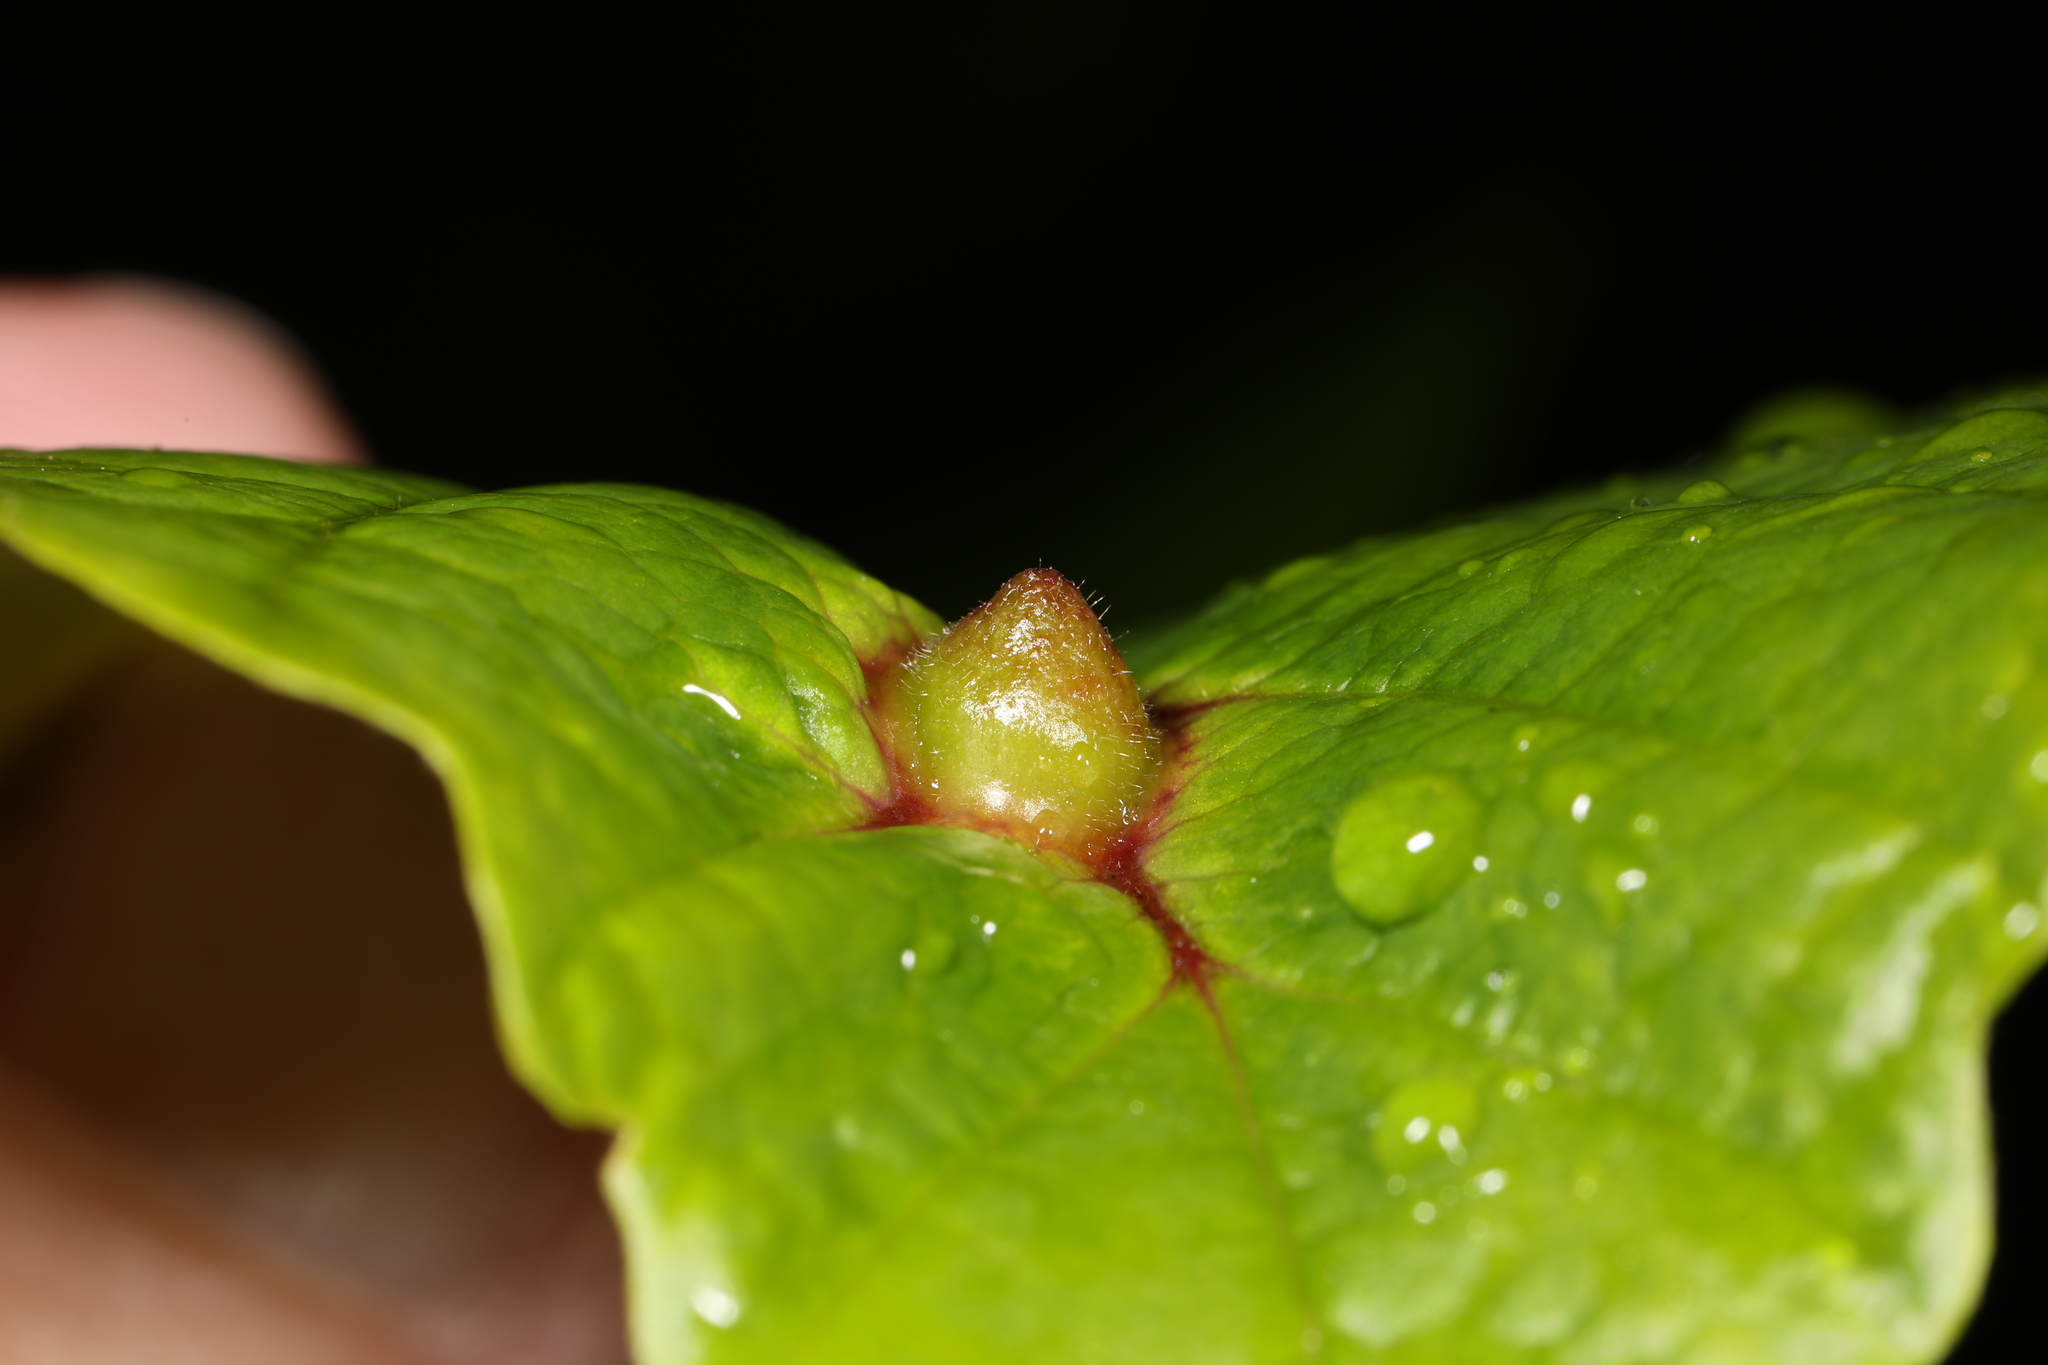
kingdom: Animalia
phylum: Arthropoda
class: Insecta
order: Hemiptera
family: Aphididae
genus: Hormaphis
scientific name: Hormaphis hamamelidis
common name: Witch-hazel cone gall aphid
